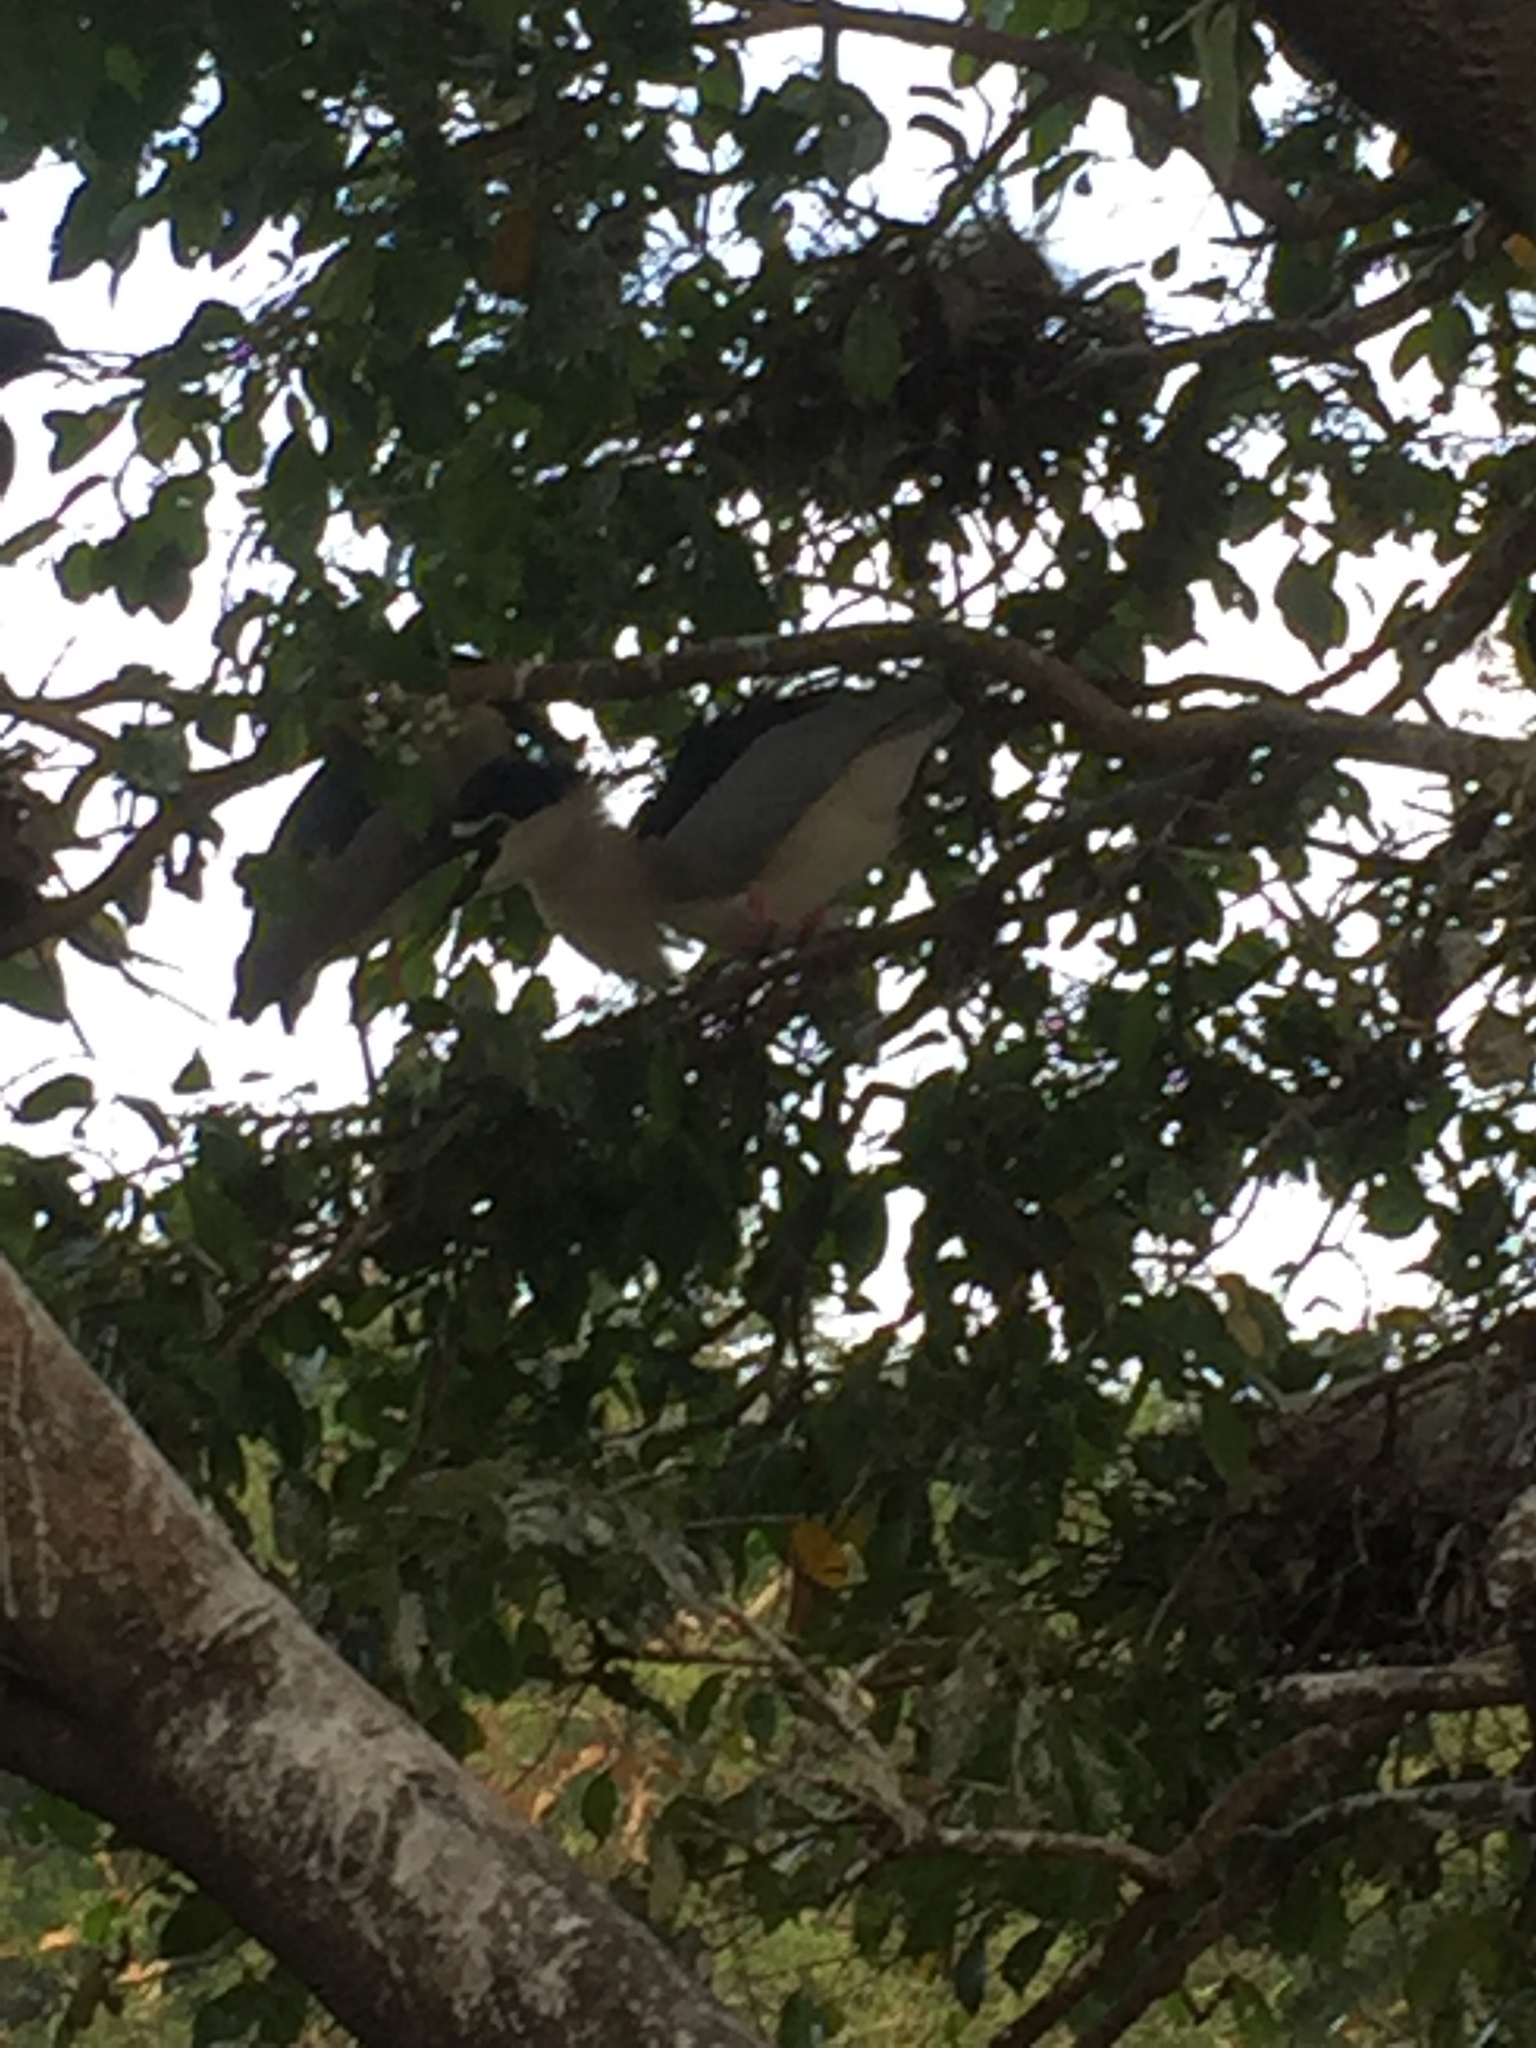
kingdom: Animalia
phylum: Chordata
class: Aves
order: Pelecaniformes
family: Ardeidae
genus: Nycticorax
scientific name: Nycticorax nycticorax
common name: Black-crowned night heron
